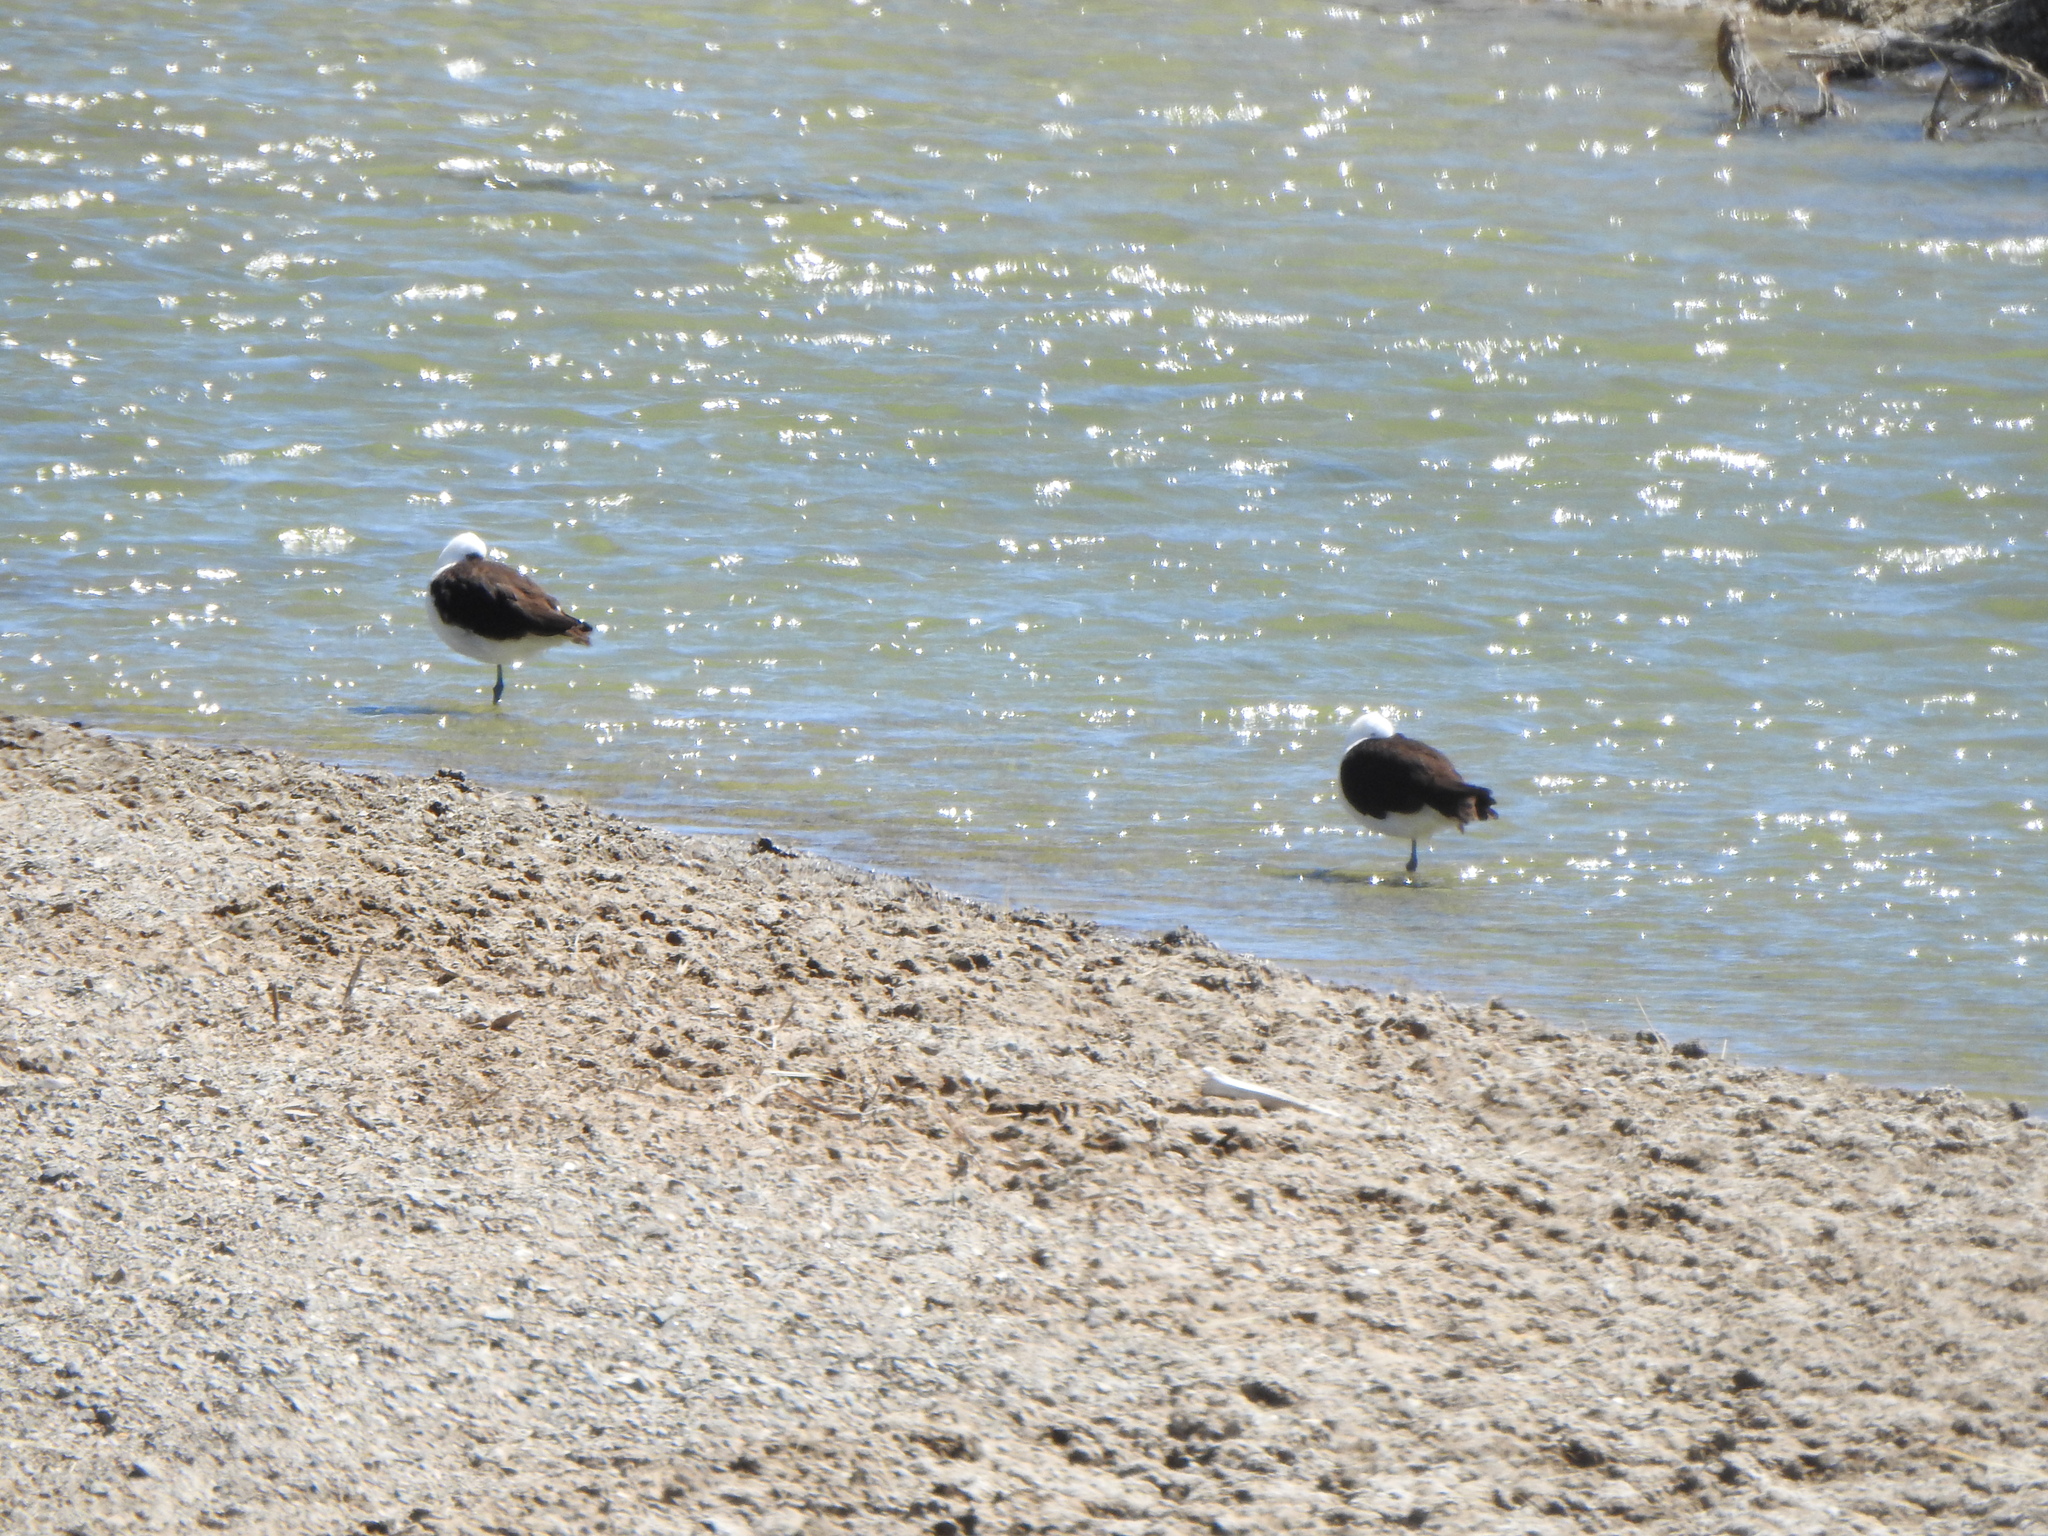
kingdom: Animalia
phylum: Chordata
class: Aves
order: Charadriiformes
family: Recurvirostridae
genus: Recurvirostra
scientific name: Recurvirostra andina
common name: Andean avocet
